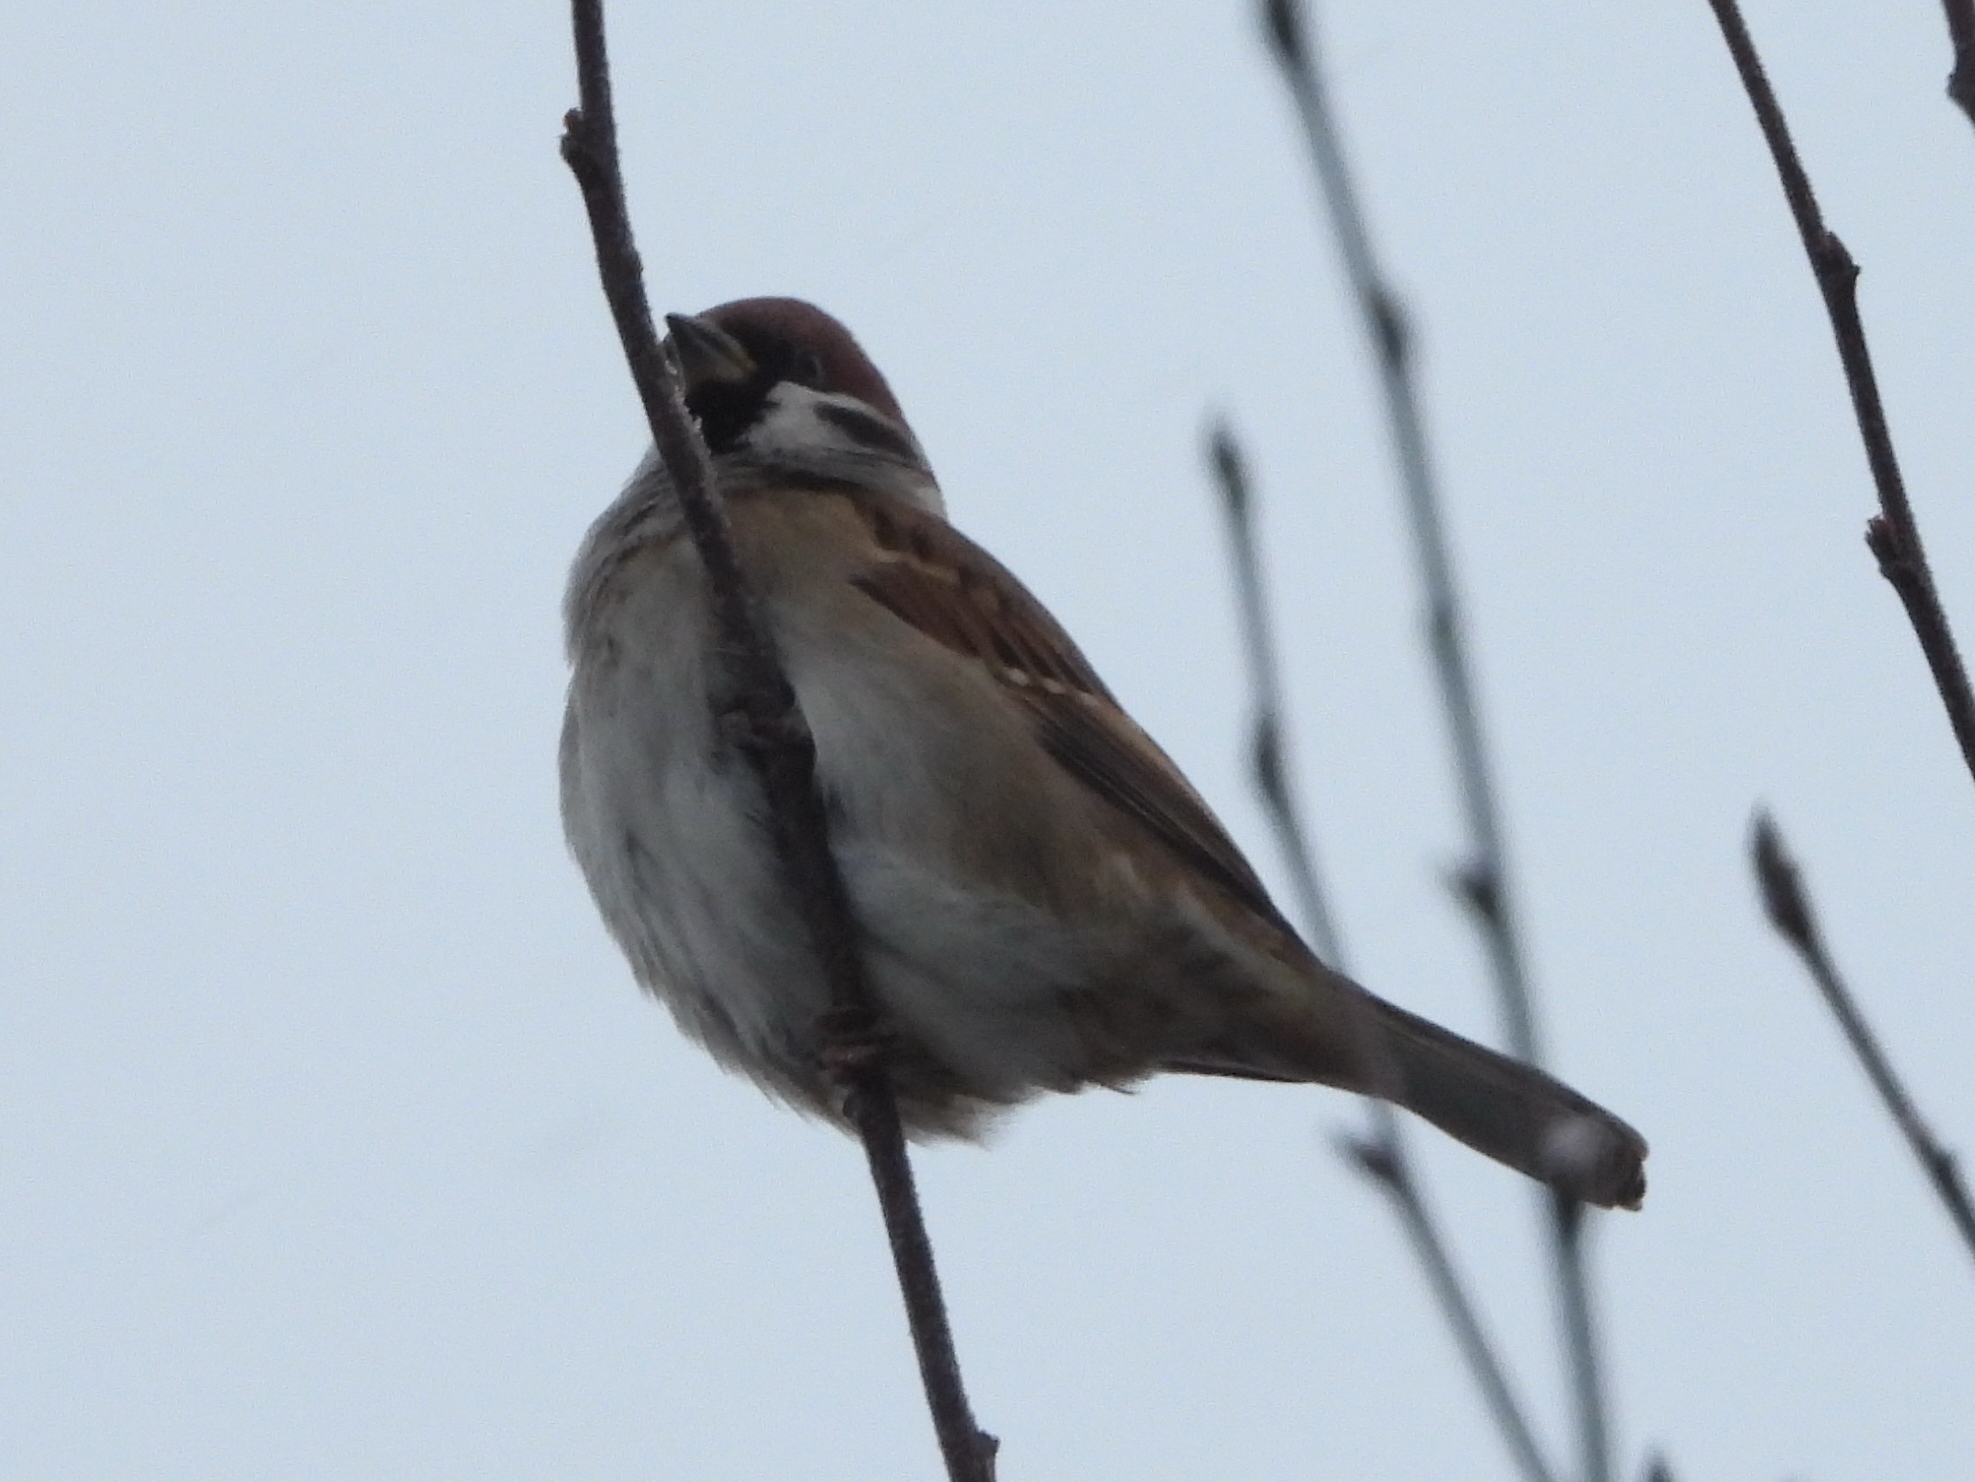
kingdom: Animalia
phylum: Chordata
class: Aves
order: Passeriformes
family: Passeridae
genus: Passer
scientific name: Passer montanus
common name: Eurasian tree sparrow
